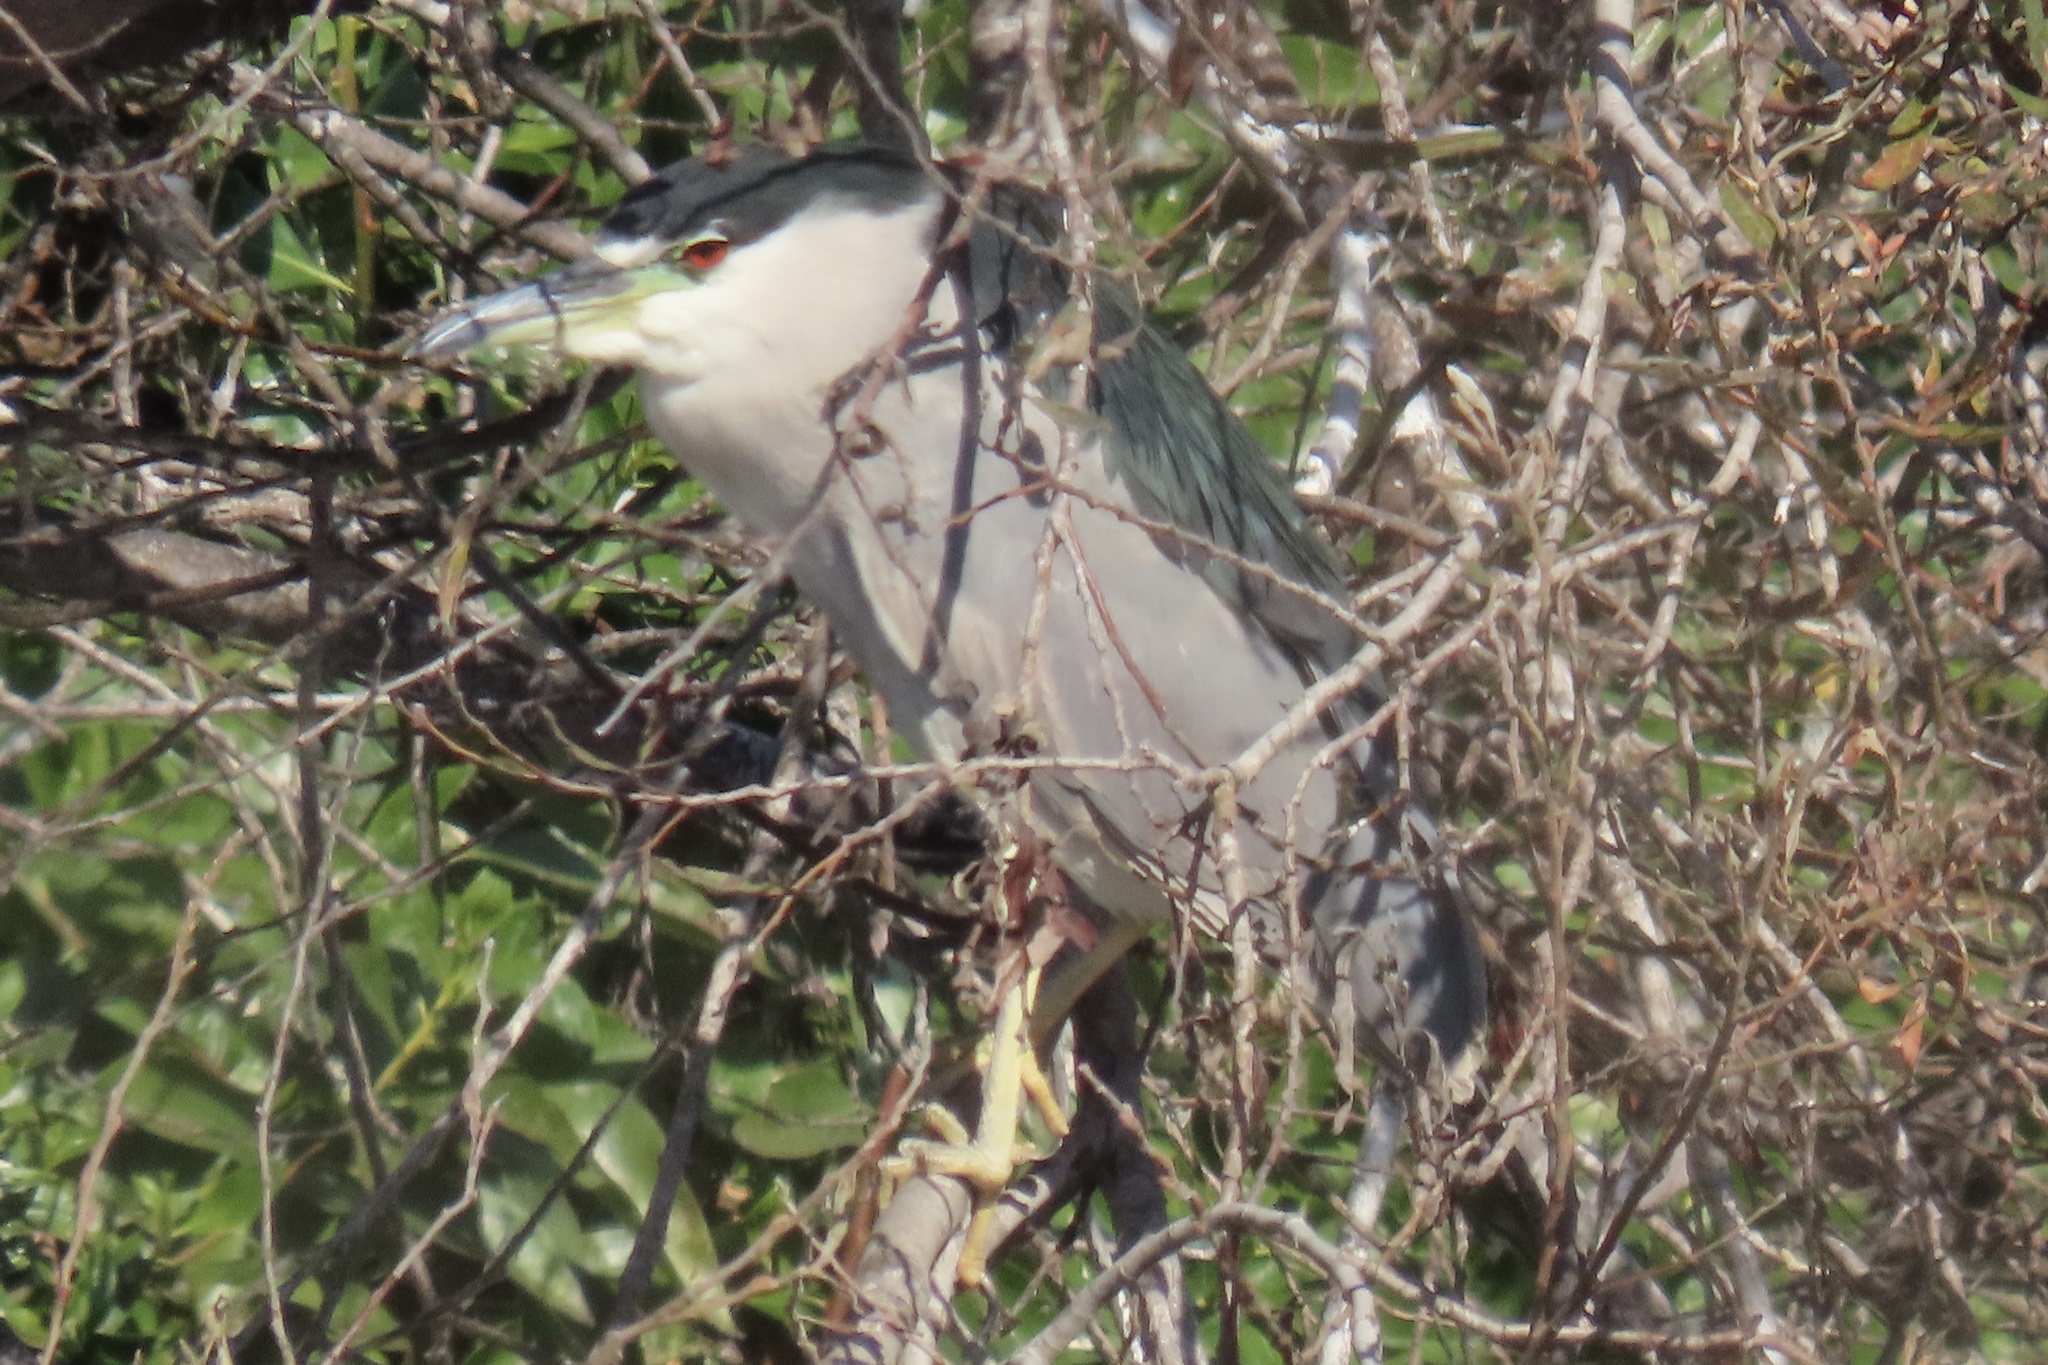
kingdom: Animalia
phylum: Chordata
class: Aves
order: Pelecaniformes
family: Ardeidae
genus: Nycticorax
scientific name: Nycticorax nycticorax
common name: Black-crowned night heron
